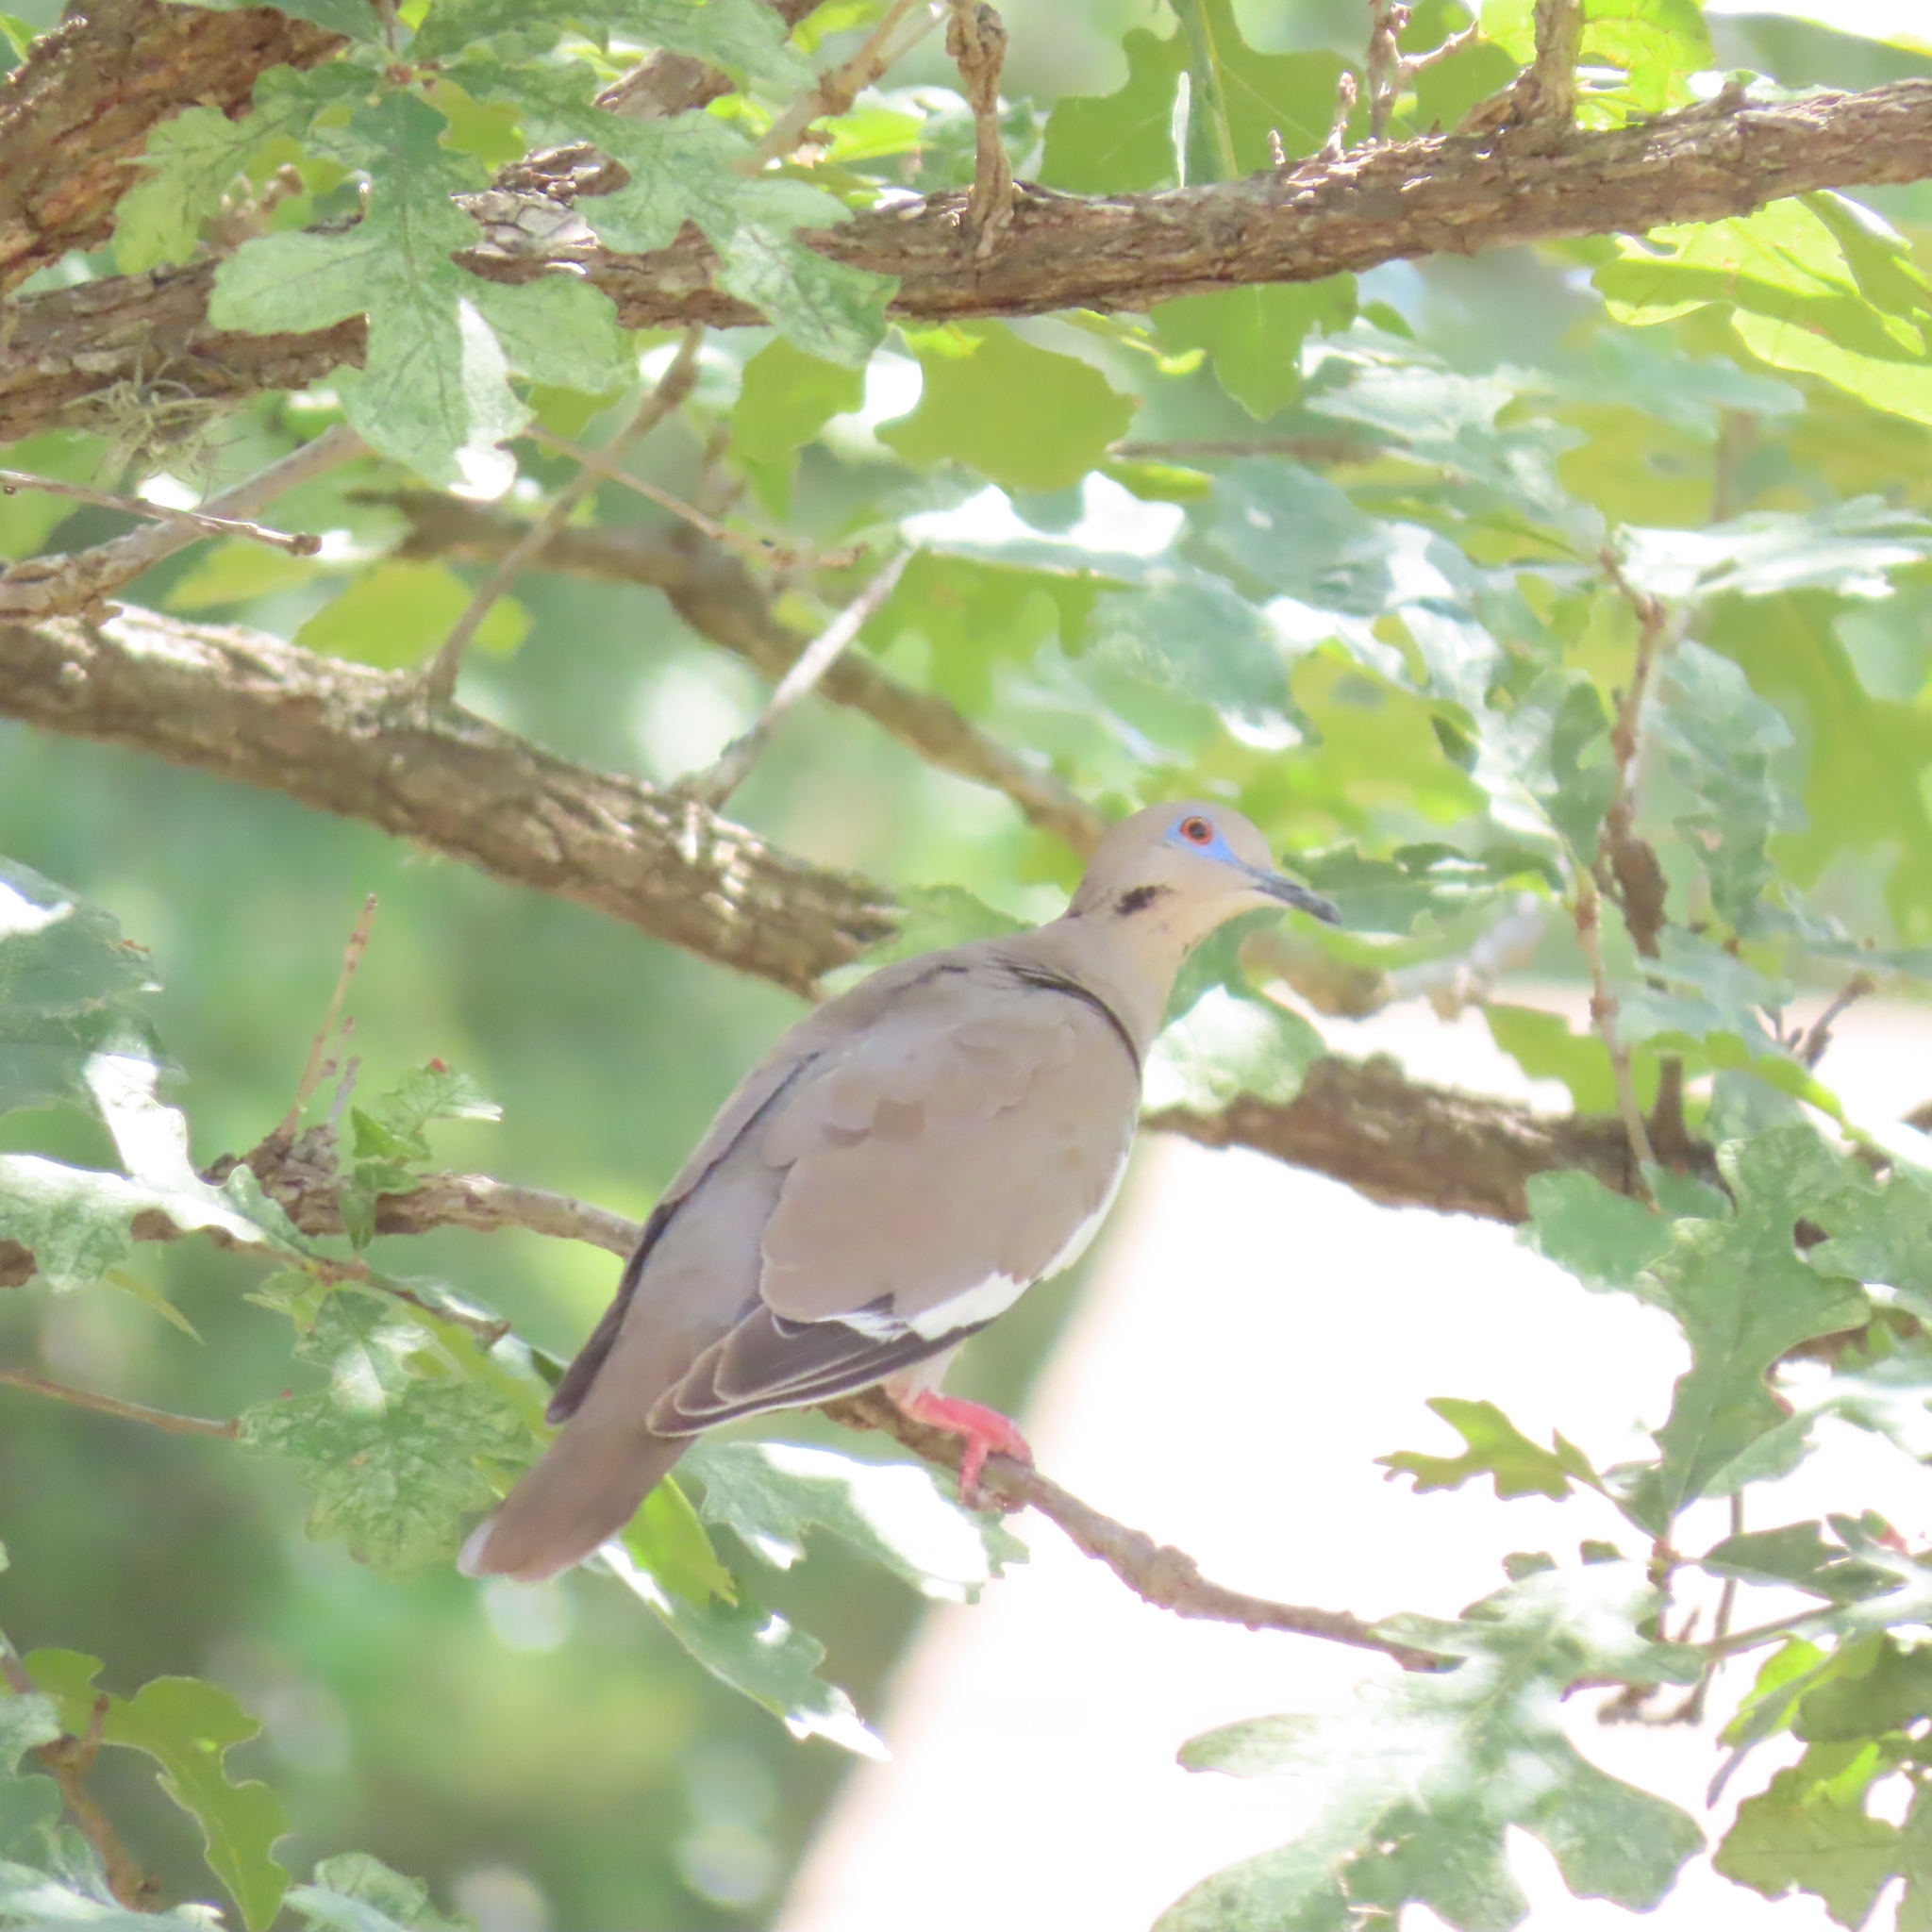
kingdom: Animalia
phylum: Chordata
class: Aves
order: Columbiformes
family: Columbidae
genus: Zenaida
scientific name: Zenaida asiatica
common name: White-winged dove
